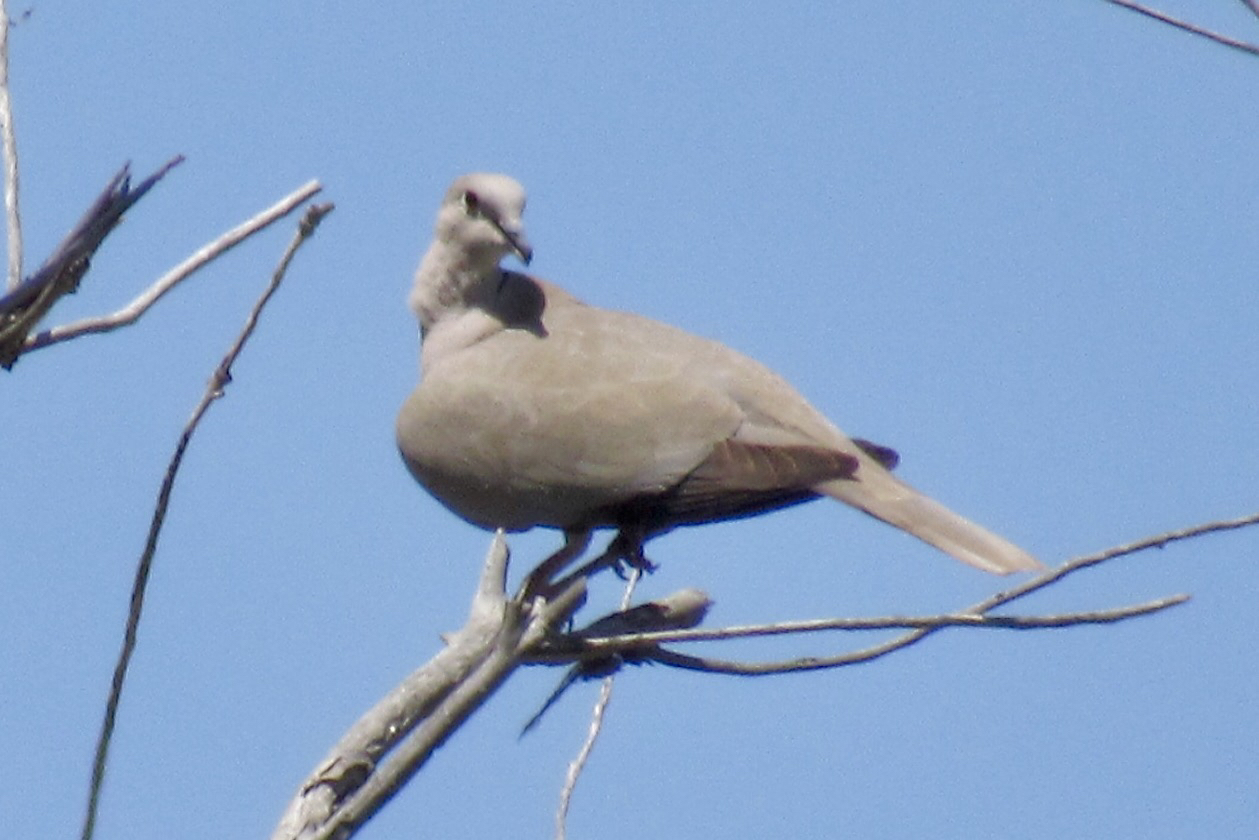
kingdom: Animalia
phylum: Chordata
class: Aves
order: Columbiformes
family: Columbidae
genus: Streptopelia
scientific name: Streptopelia decaocto
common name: Eurasian collared dove
